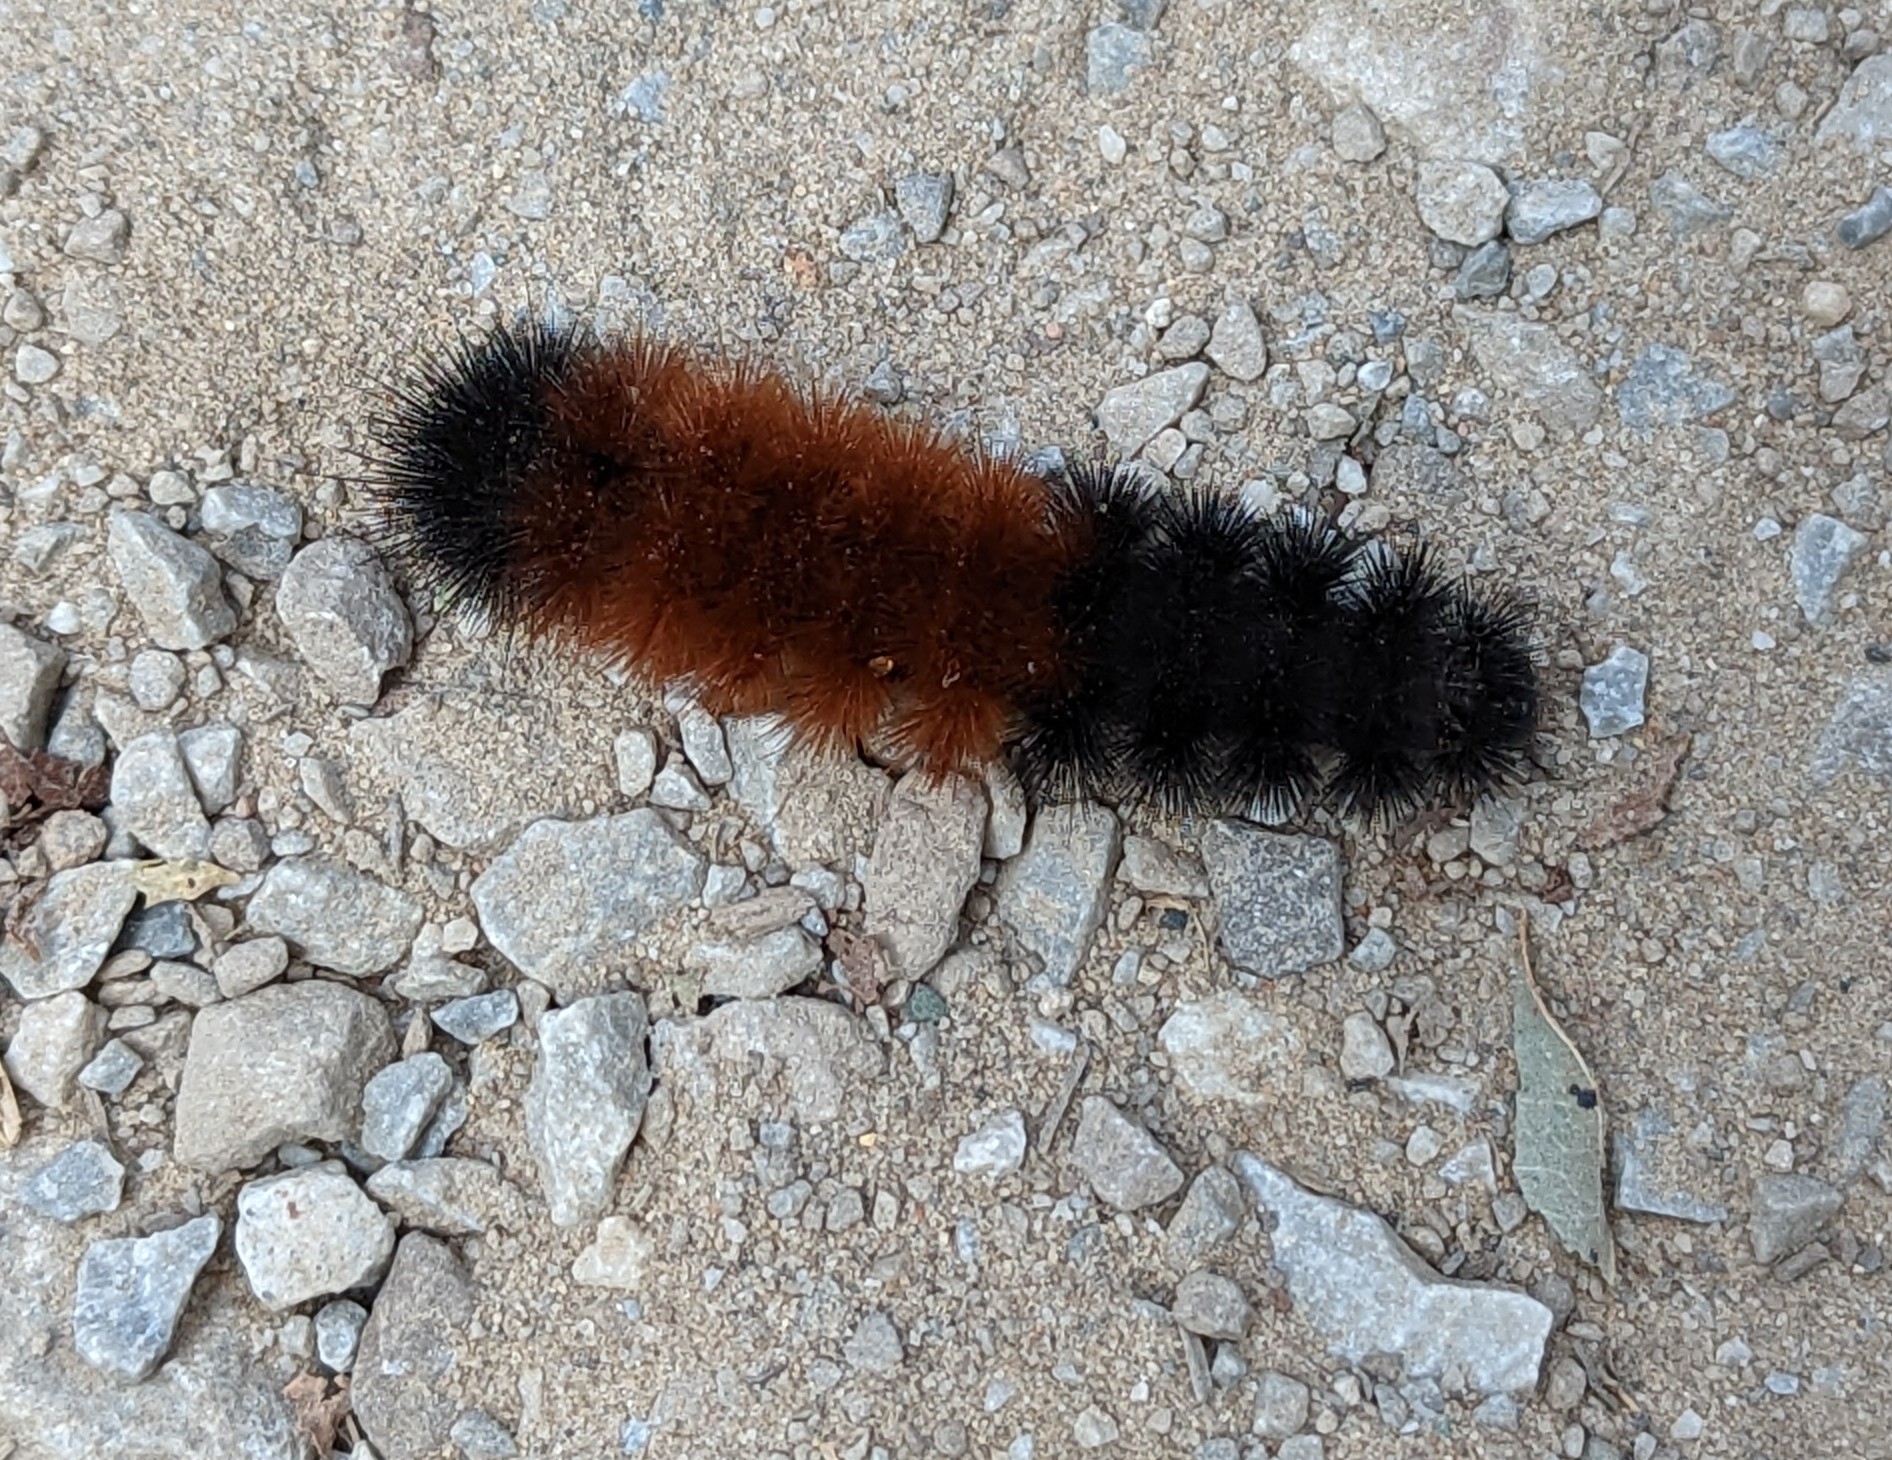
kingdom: Animalia
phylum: Arthropoda
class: Insecta
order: Lepidoptera
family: Erebidae
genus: Pyrrharctia
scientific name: Pyrrharctia isabella
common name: Isabella tiger moth
